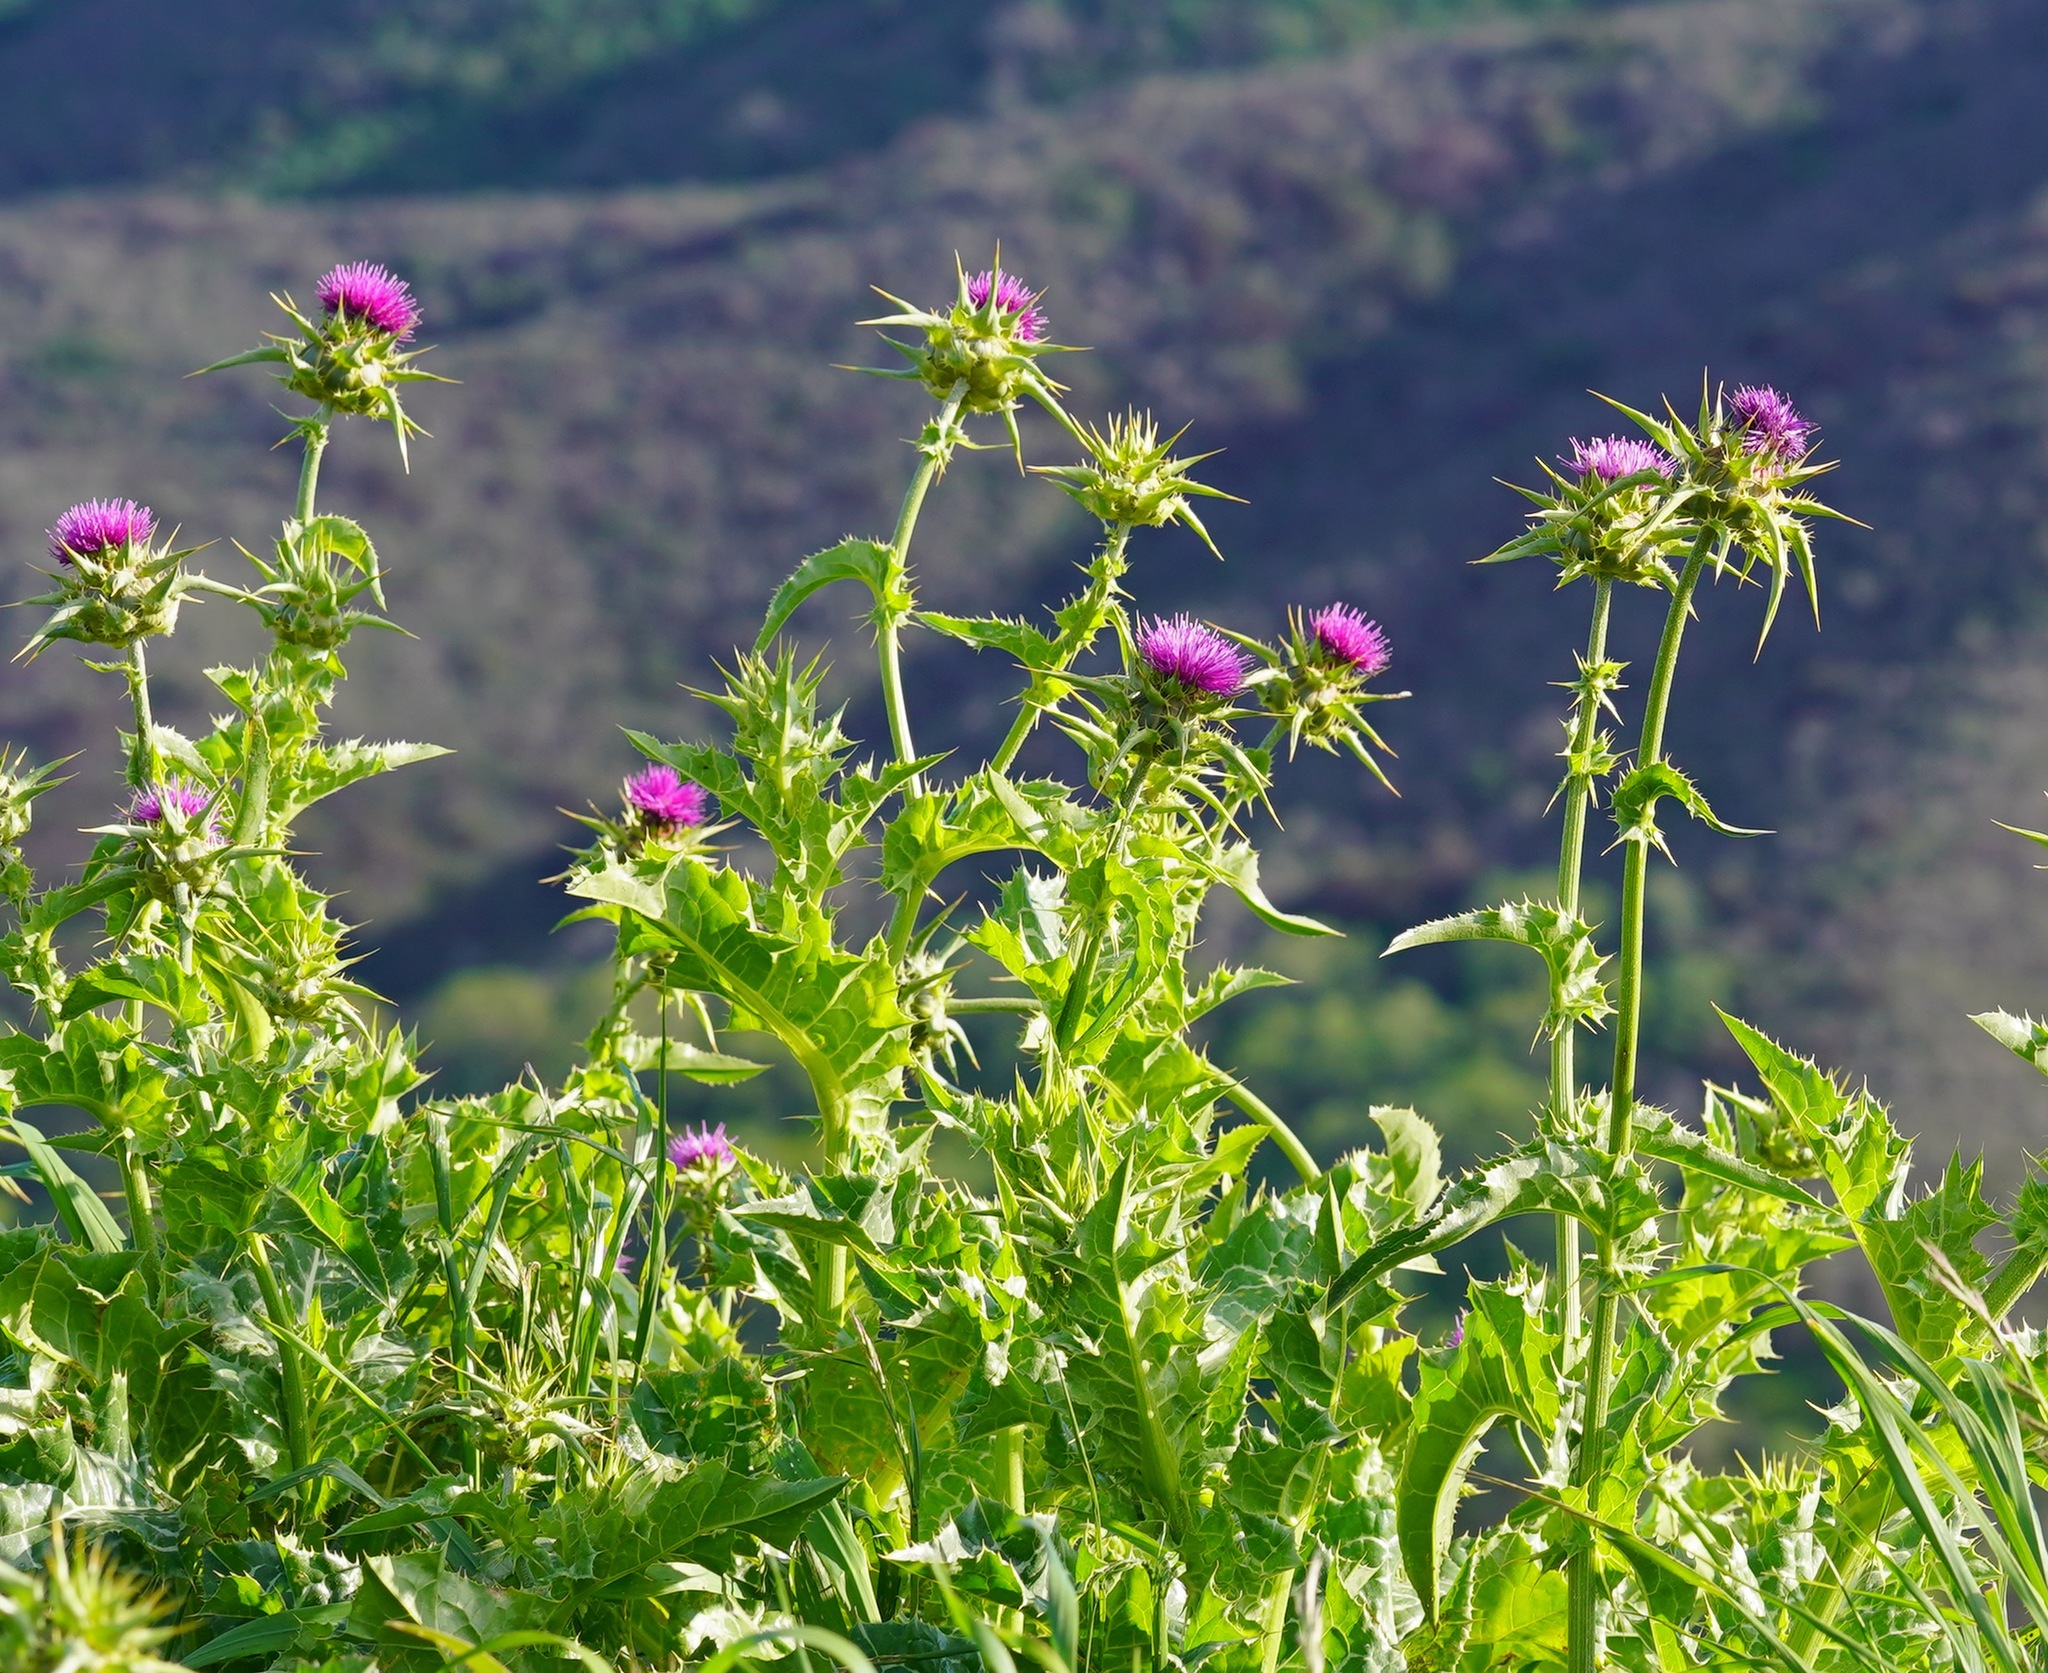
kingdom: Plantae
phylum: Tracheophyta
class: Magnoliopsida
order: Asterales
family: Asteraceae
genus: Silybum
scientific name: Silybum marianum
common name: Milk thistle
